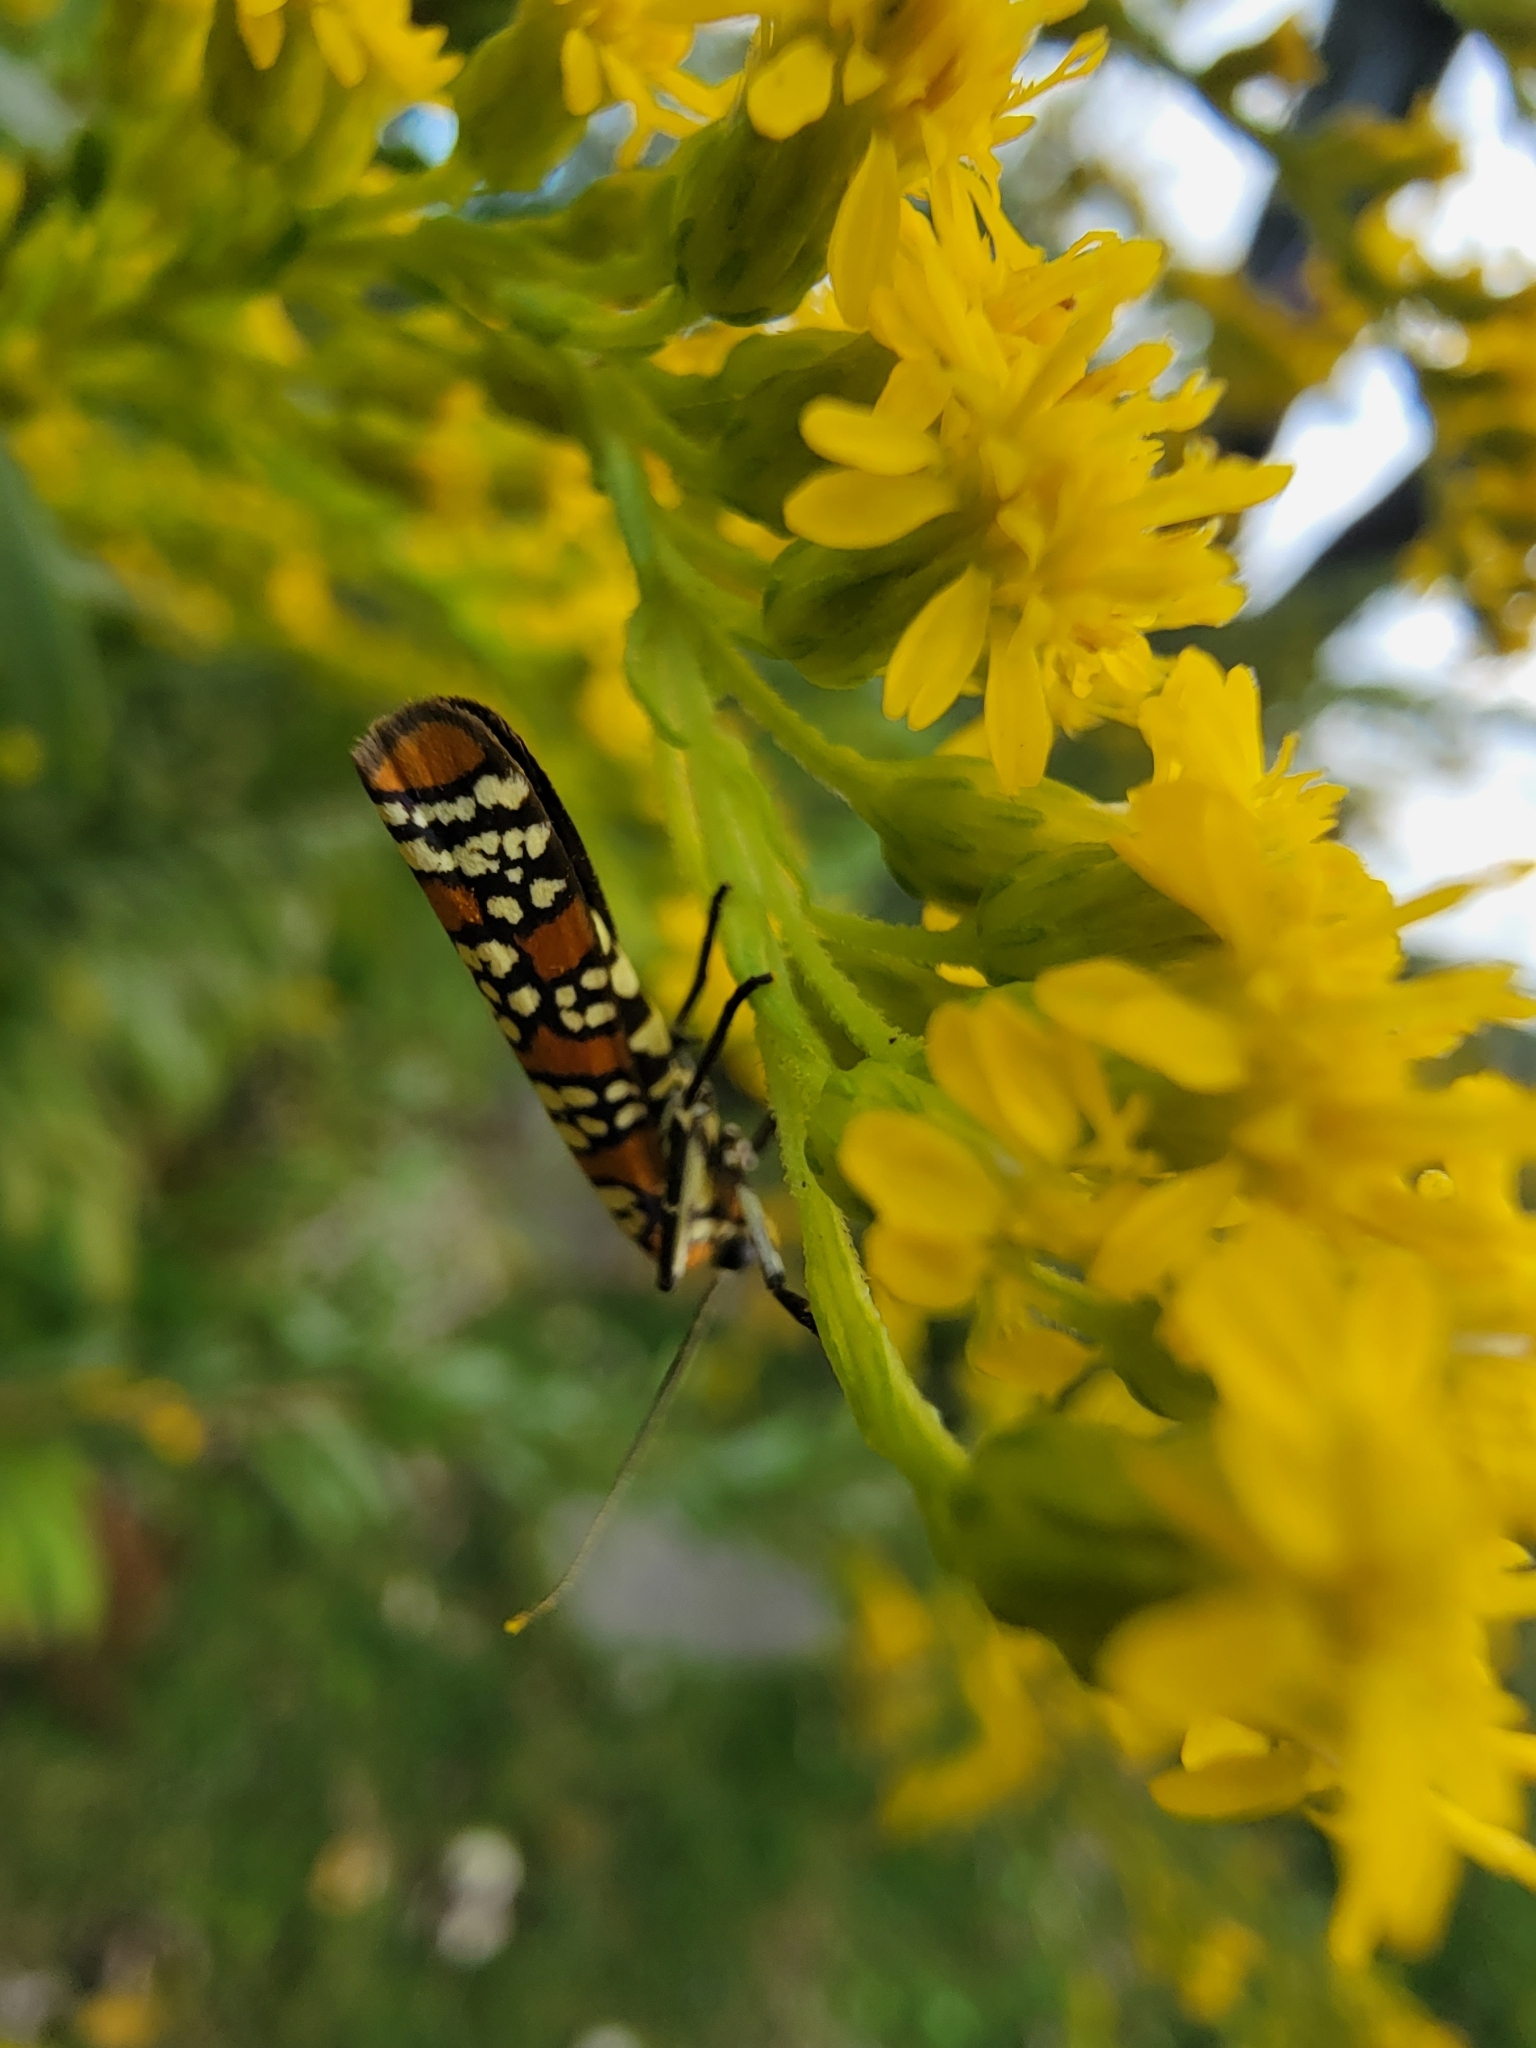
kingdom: Animalia
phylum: Arthropoda
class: Insecta
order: Lepidoptera
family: Attevidae
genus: Atteva
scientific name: Atteva punctella
